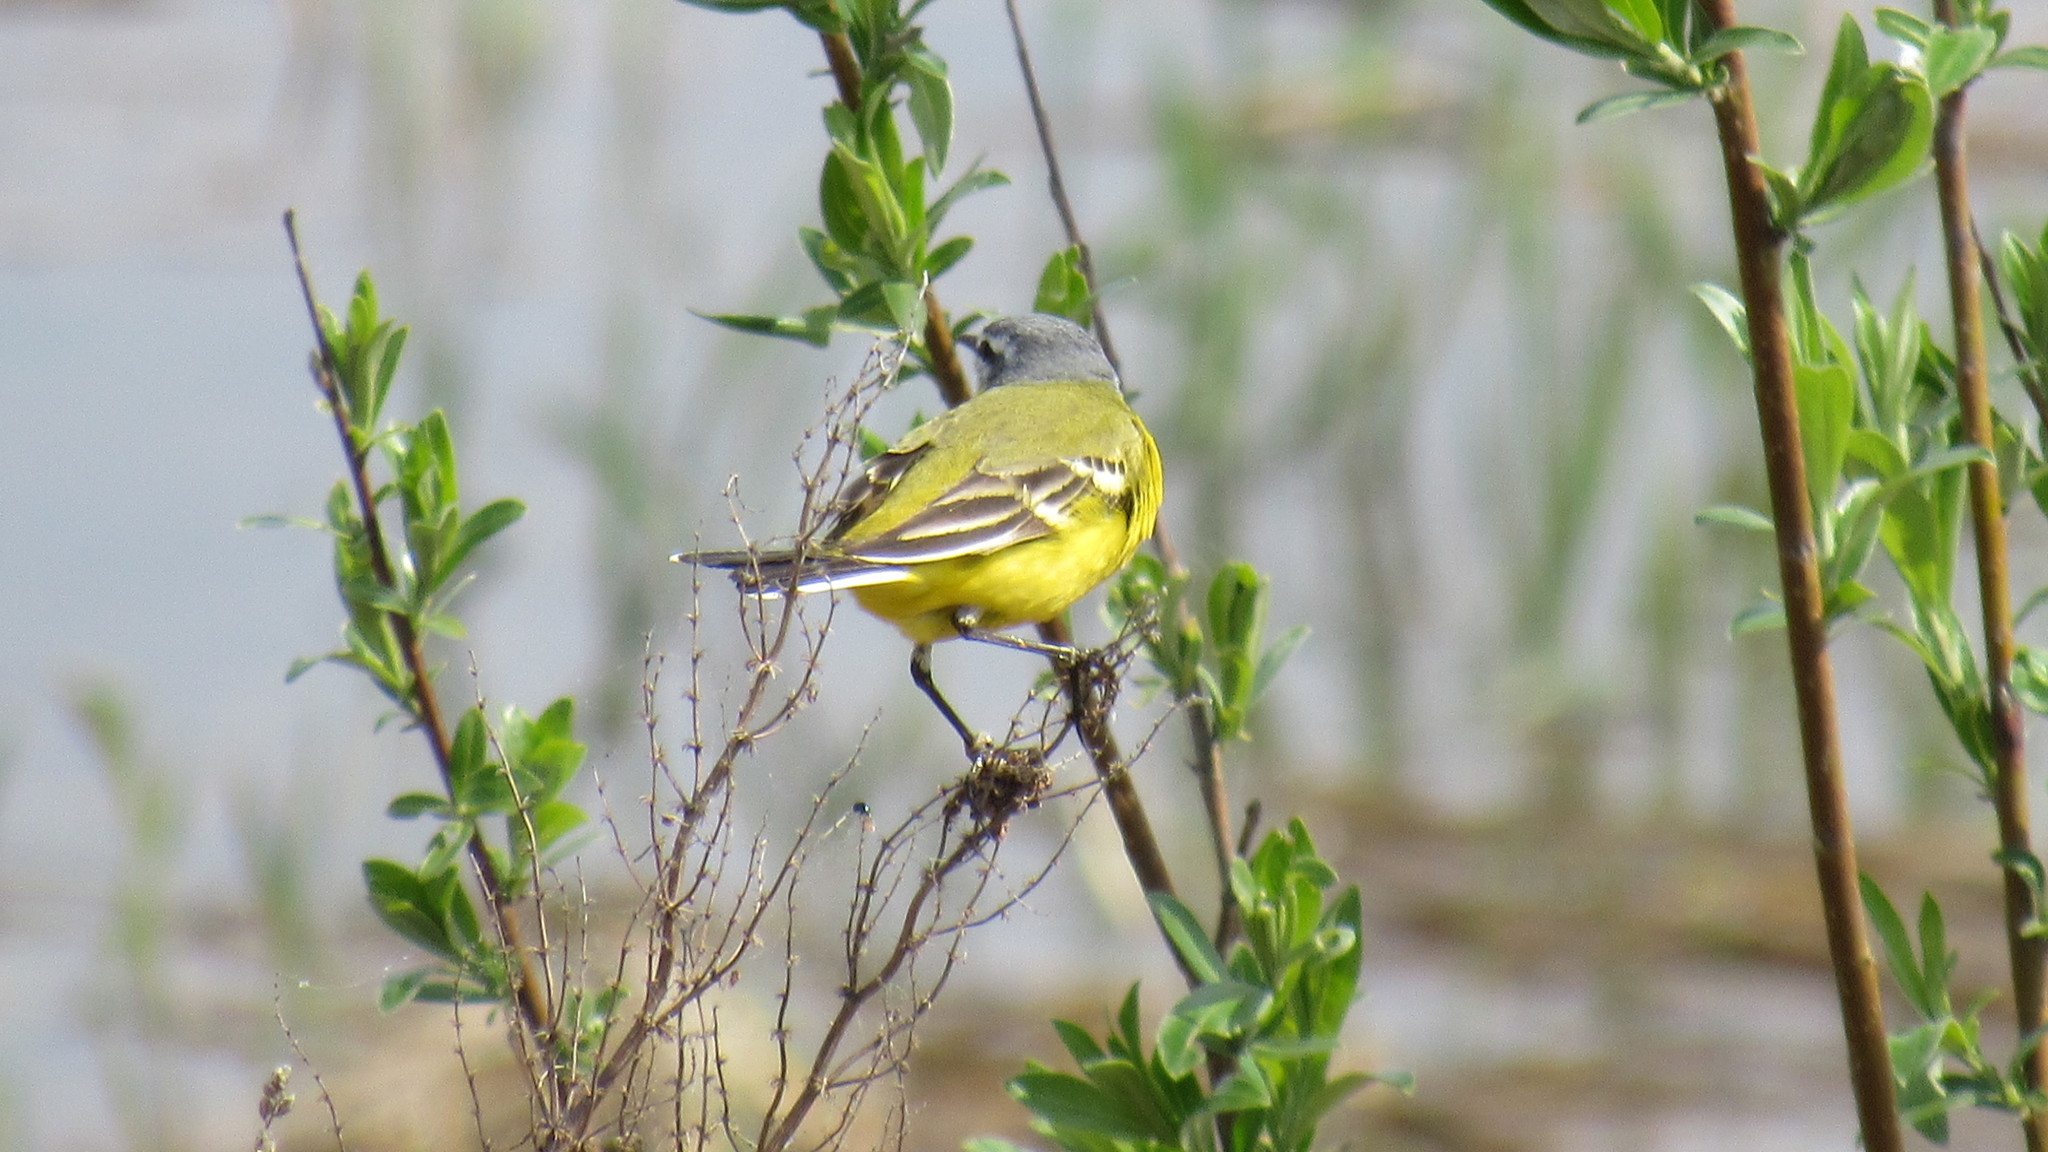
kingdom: Animalia
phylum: Chordata
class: Aves
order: Passeriformes
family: Motacillidae
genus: Motacilla
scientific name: Motacilla flava
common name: Western yellow wagtail
